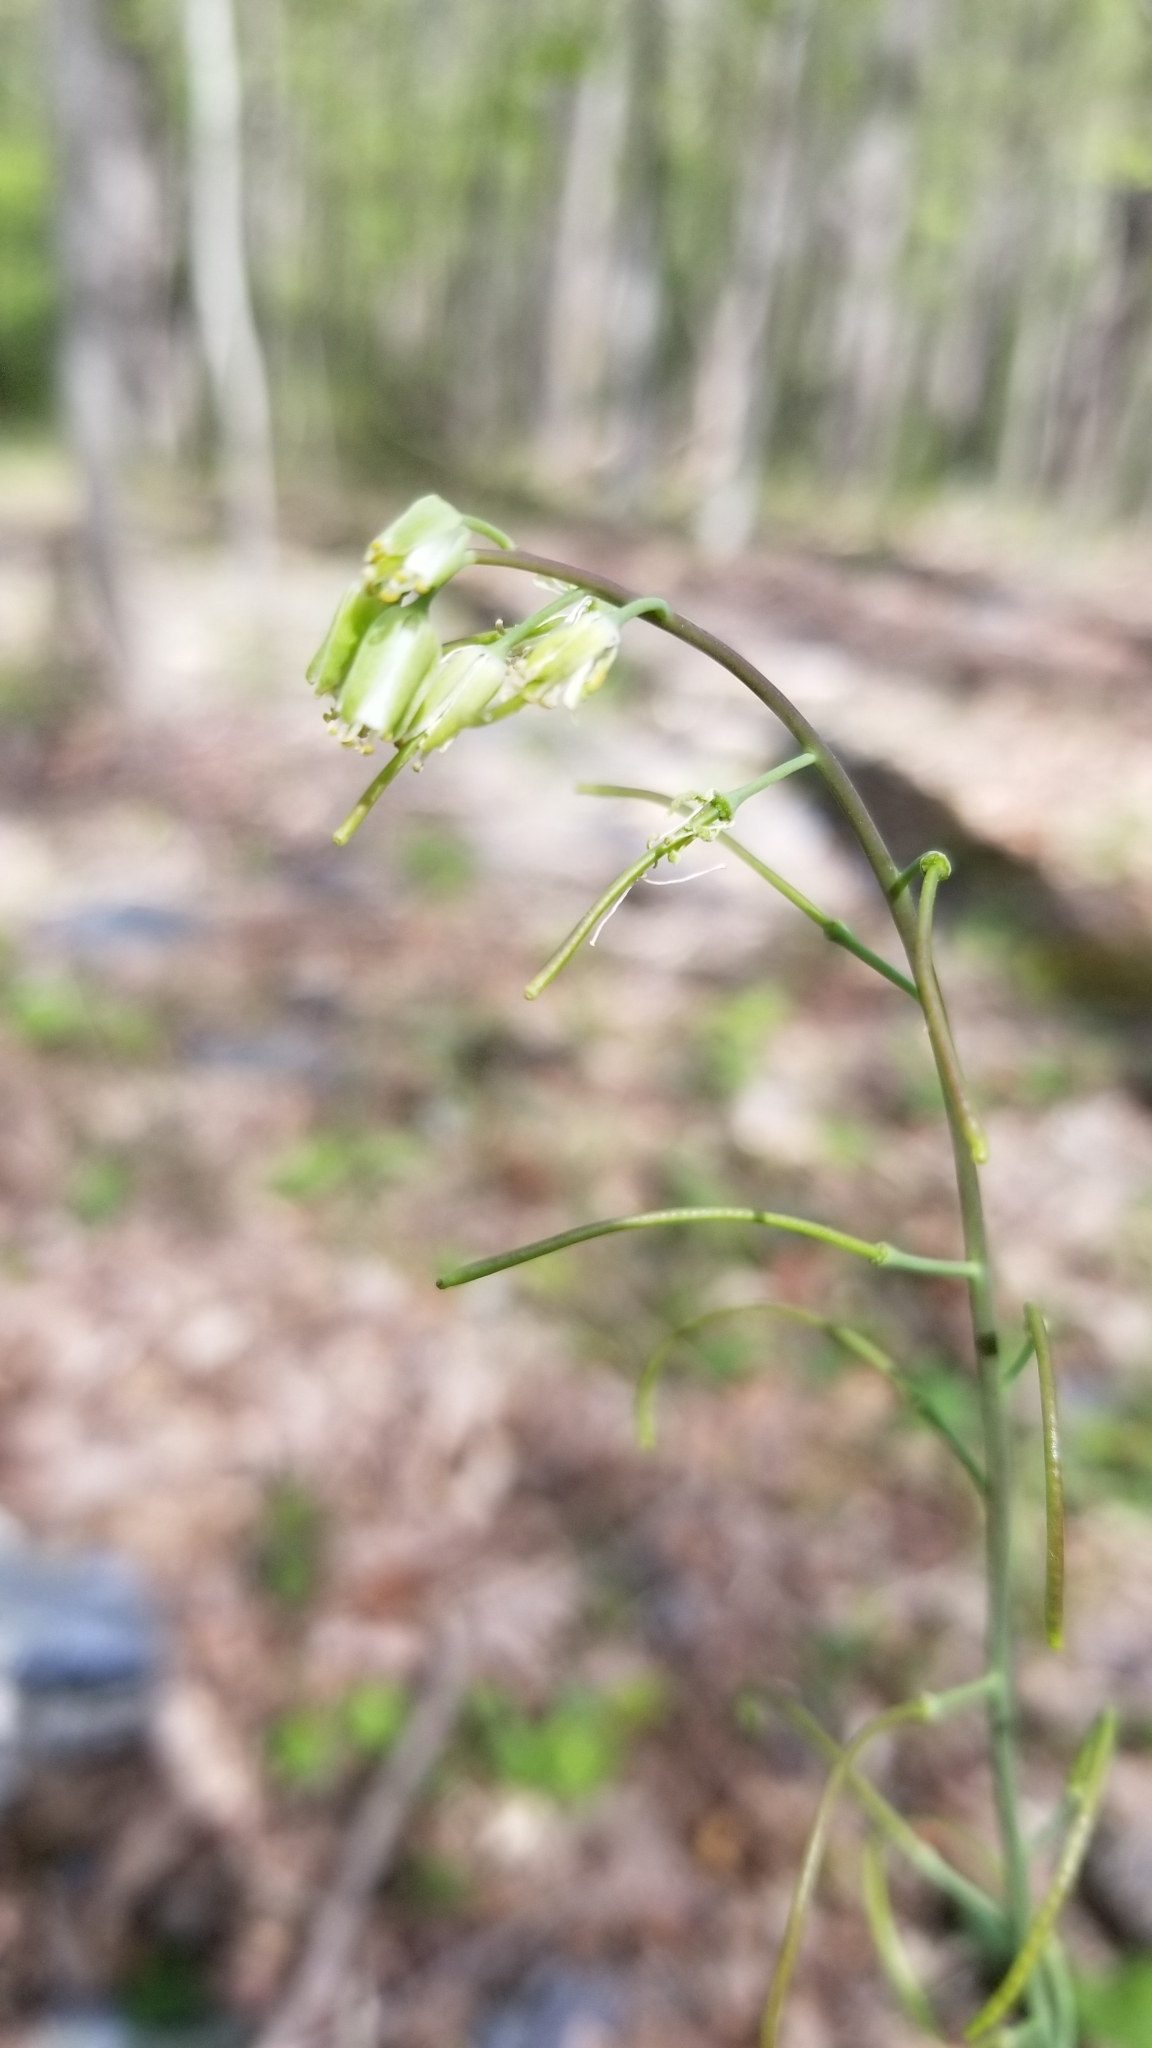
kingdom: Plantae
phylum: Tracheophyta
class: Magnoliopsida
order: Brassicales
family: Brassicaceae
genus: Borodinia
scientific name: Borodinia laevigata
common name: Smooth rockcress
